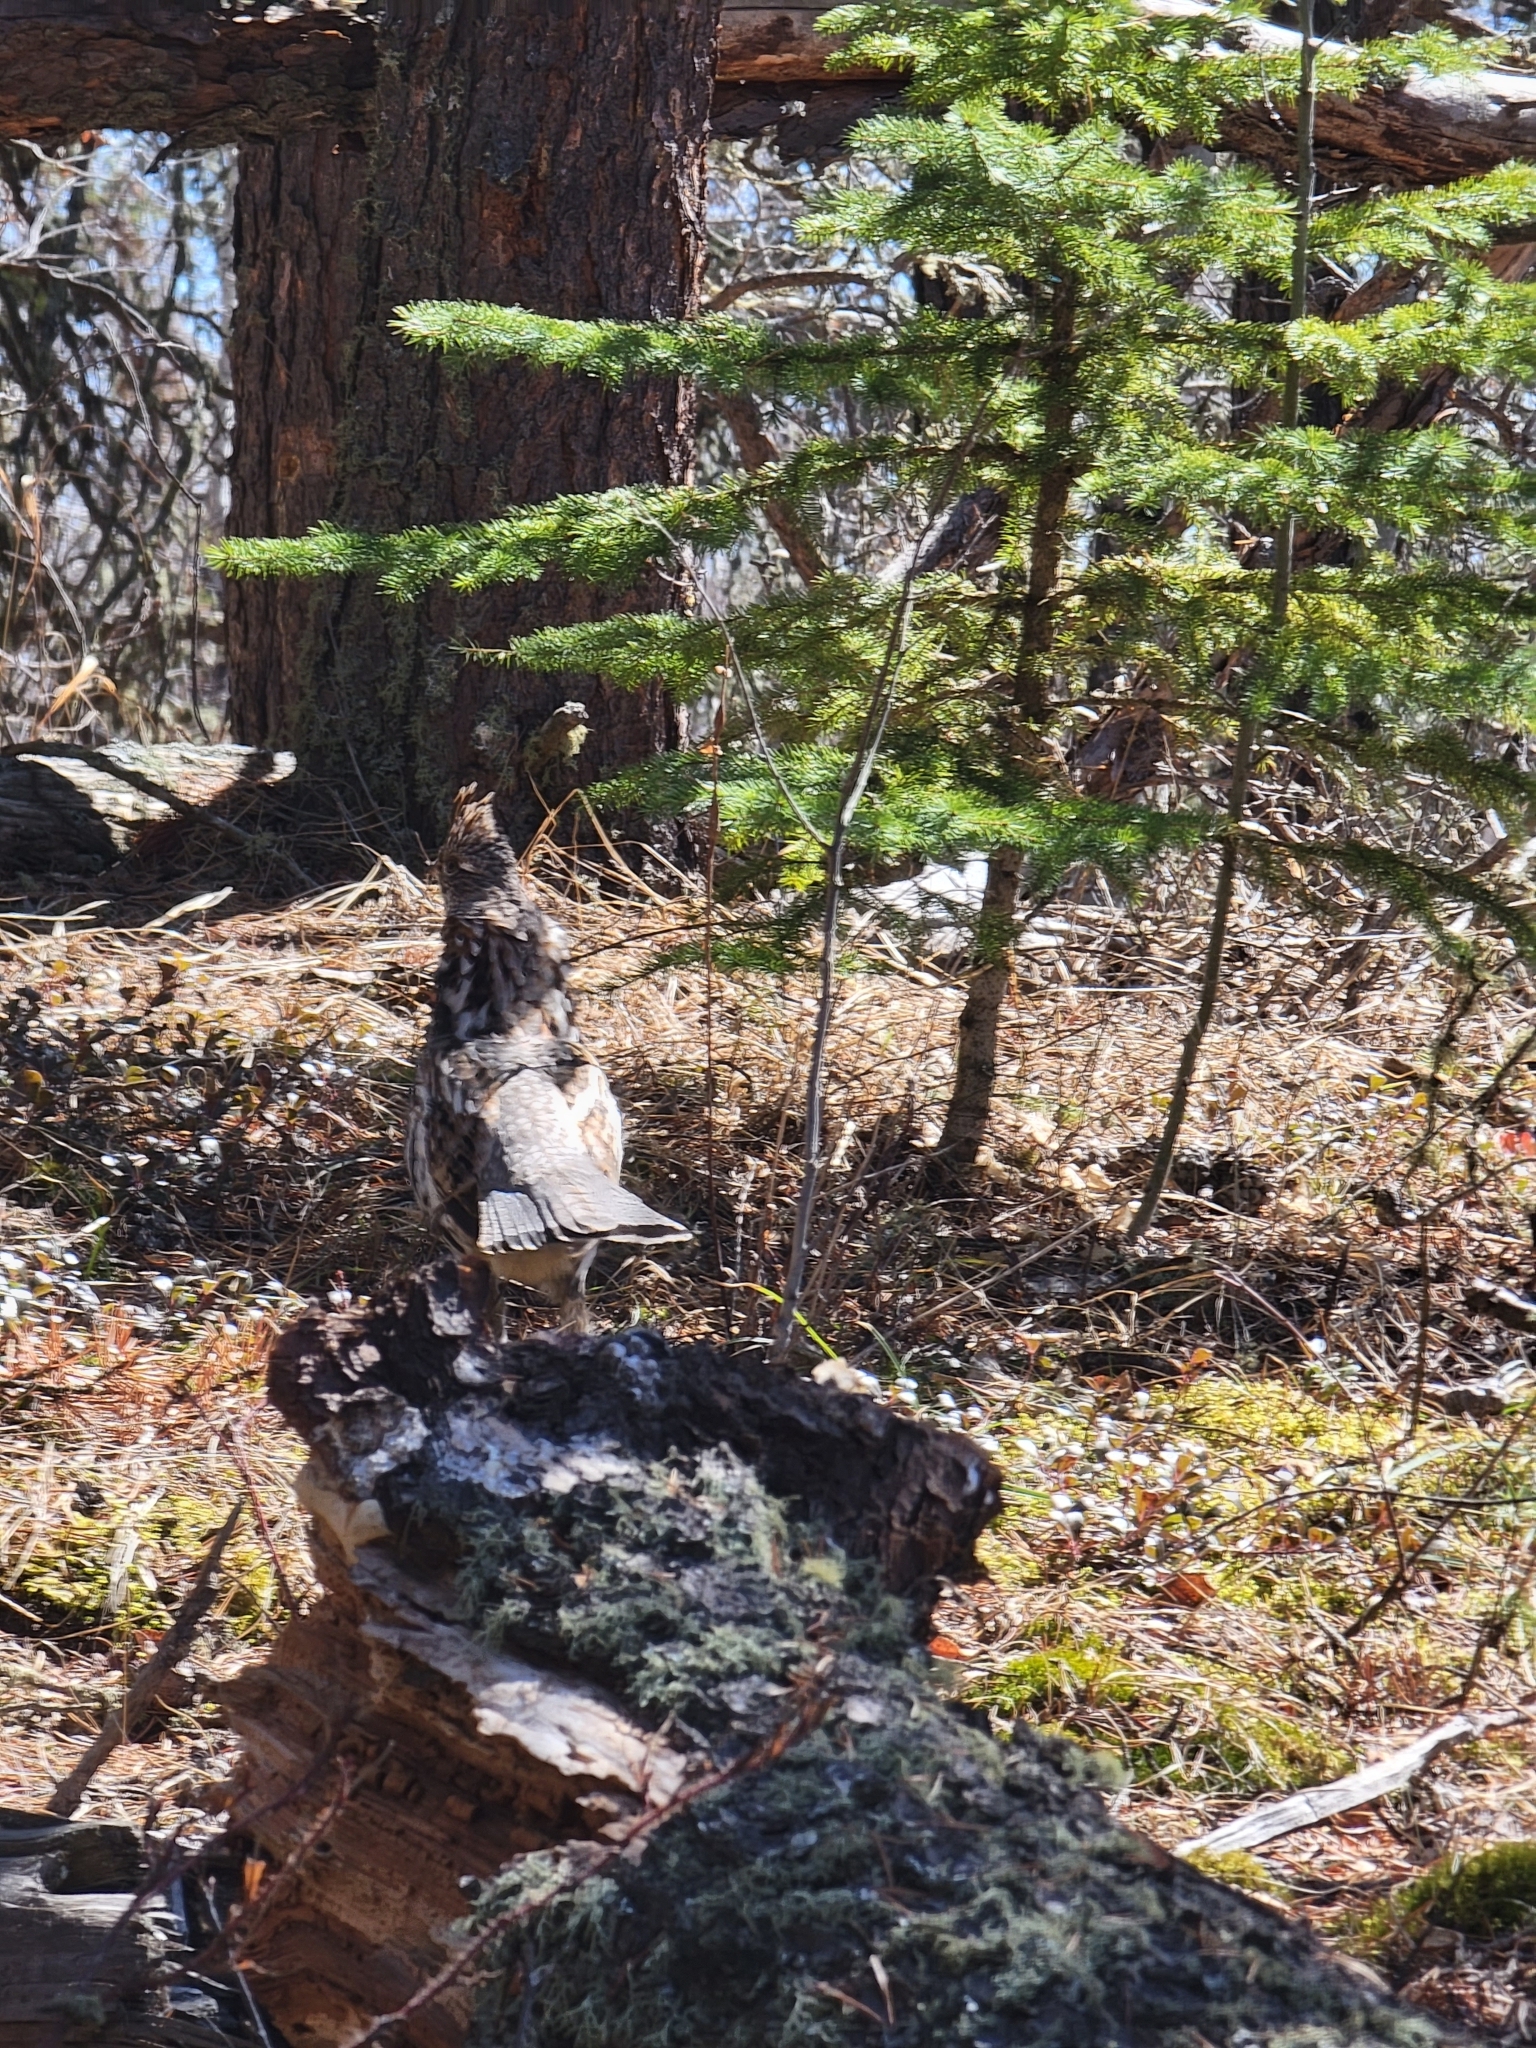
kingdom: Animalia
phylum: Chordata
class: Aves
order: Galliformes
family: Phasianidae
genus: Bonasa
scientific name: Bonasa umbellus
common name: Ruffed grouse
